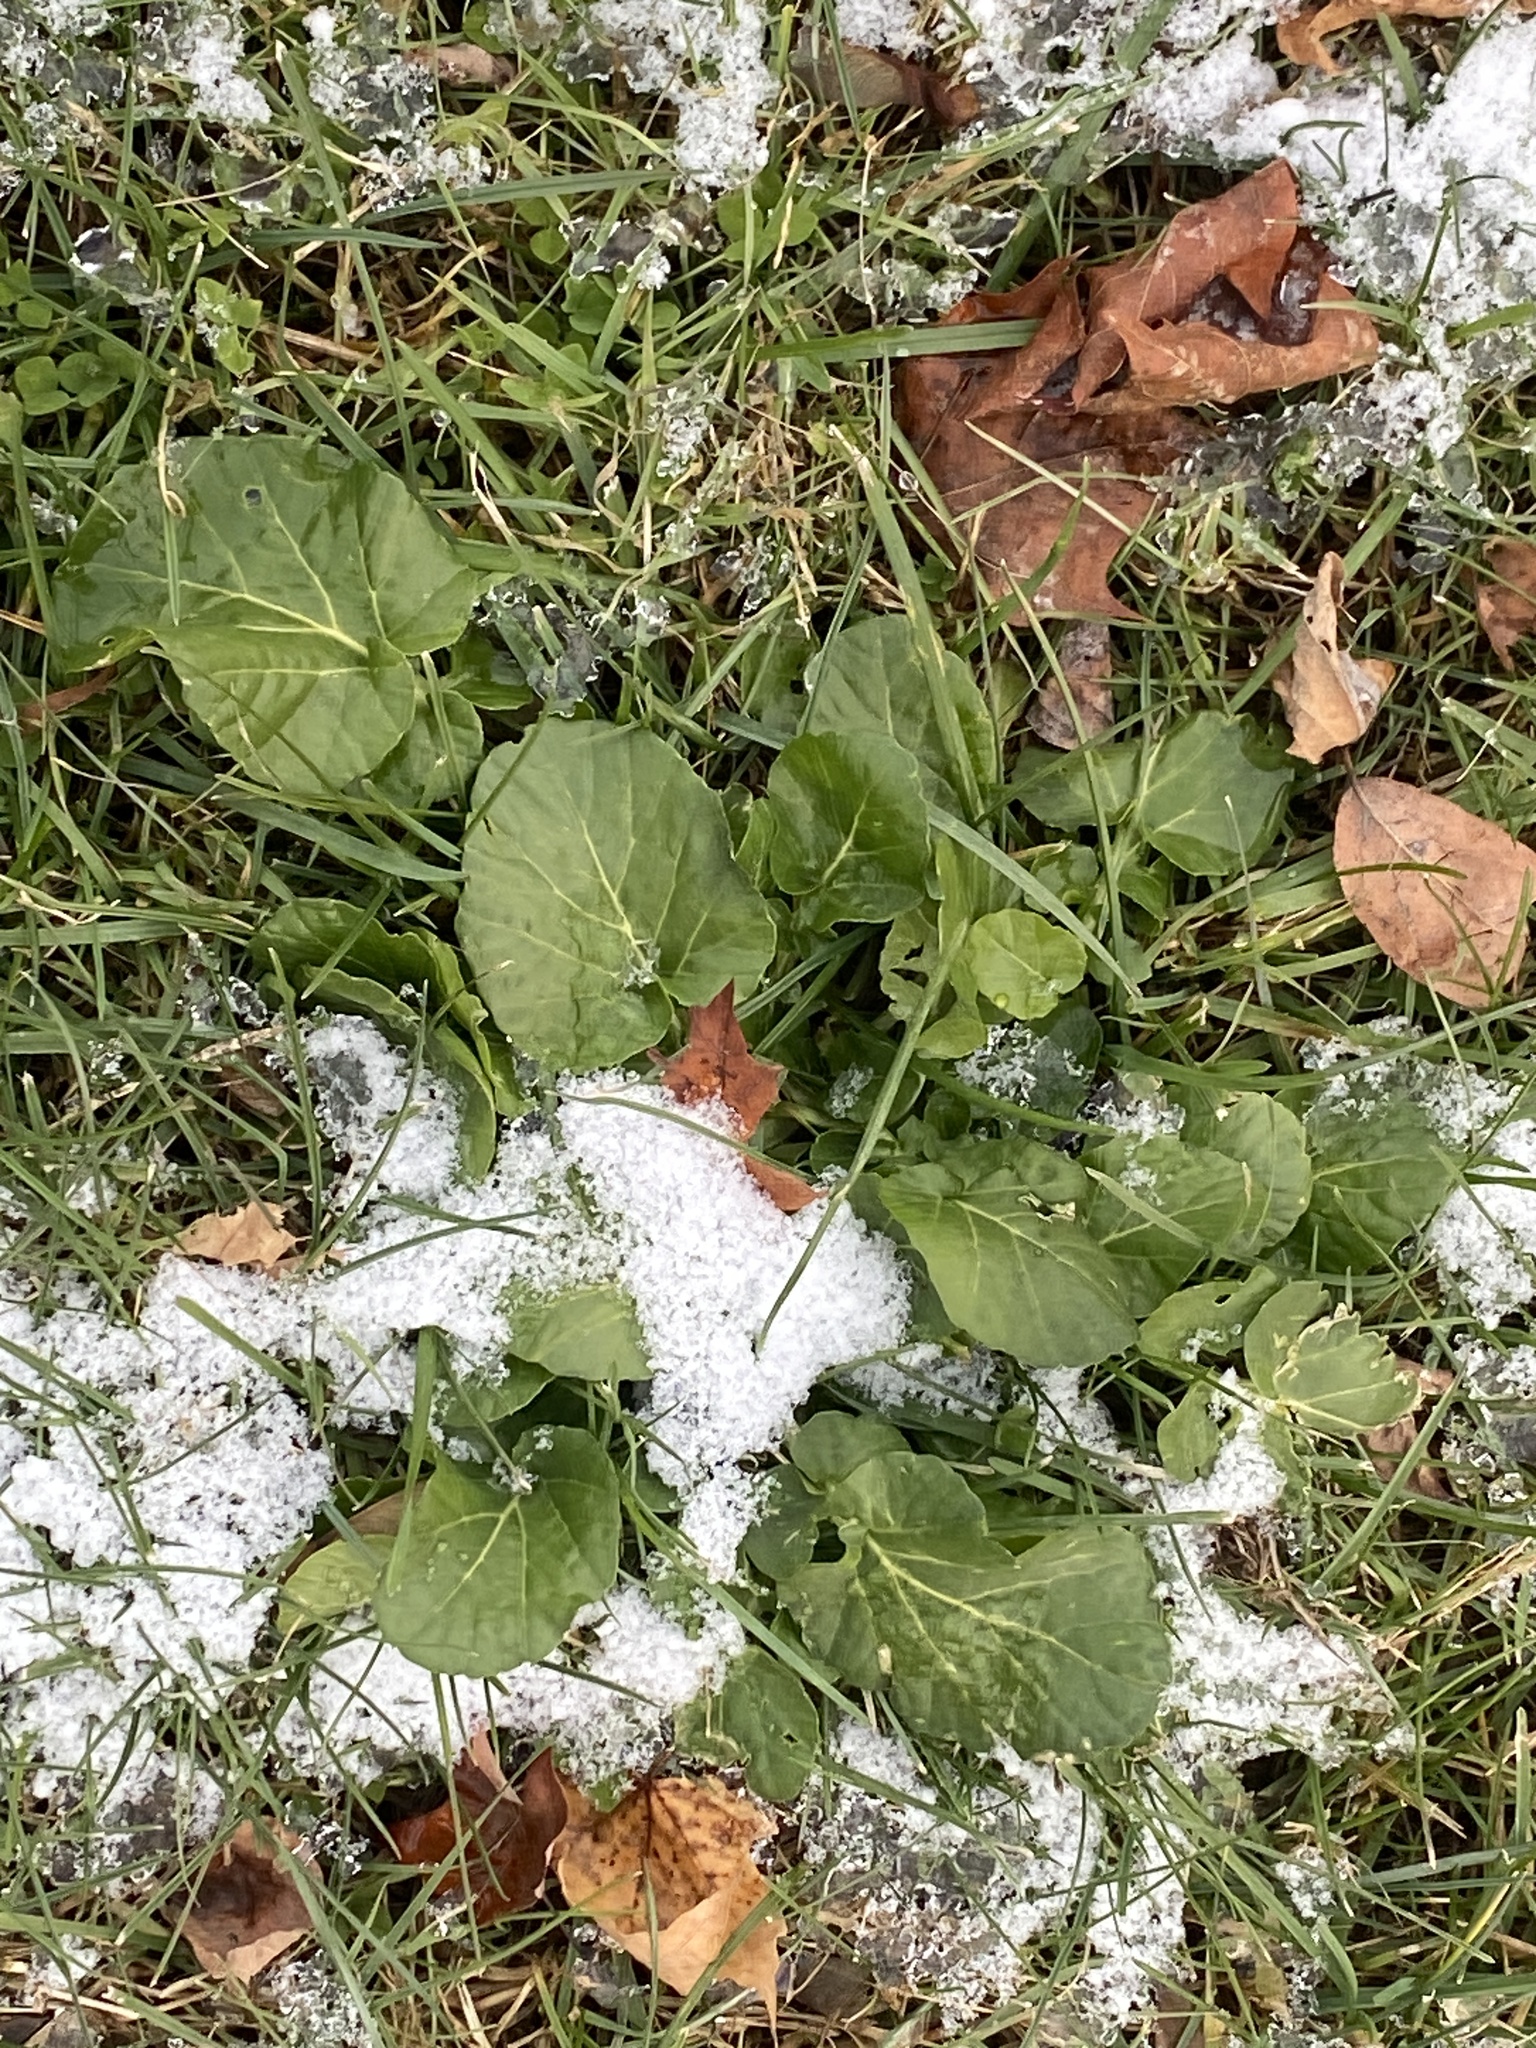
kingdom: Plantae
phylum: Tracheophyta
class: Magnoliopsida
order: Brassicales
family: Brassicaceae
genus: Barbarea
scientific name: Barbarea vulgaris
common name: Cressy-greens
